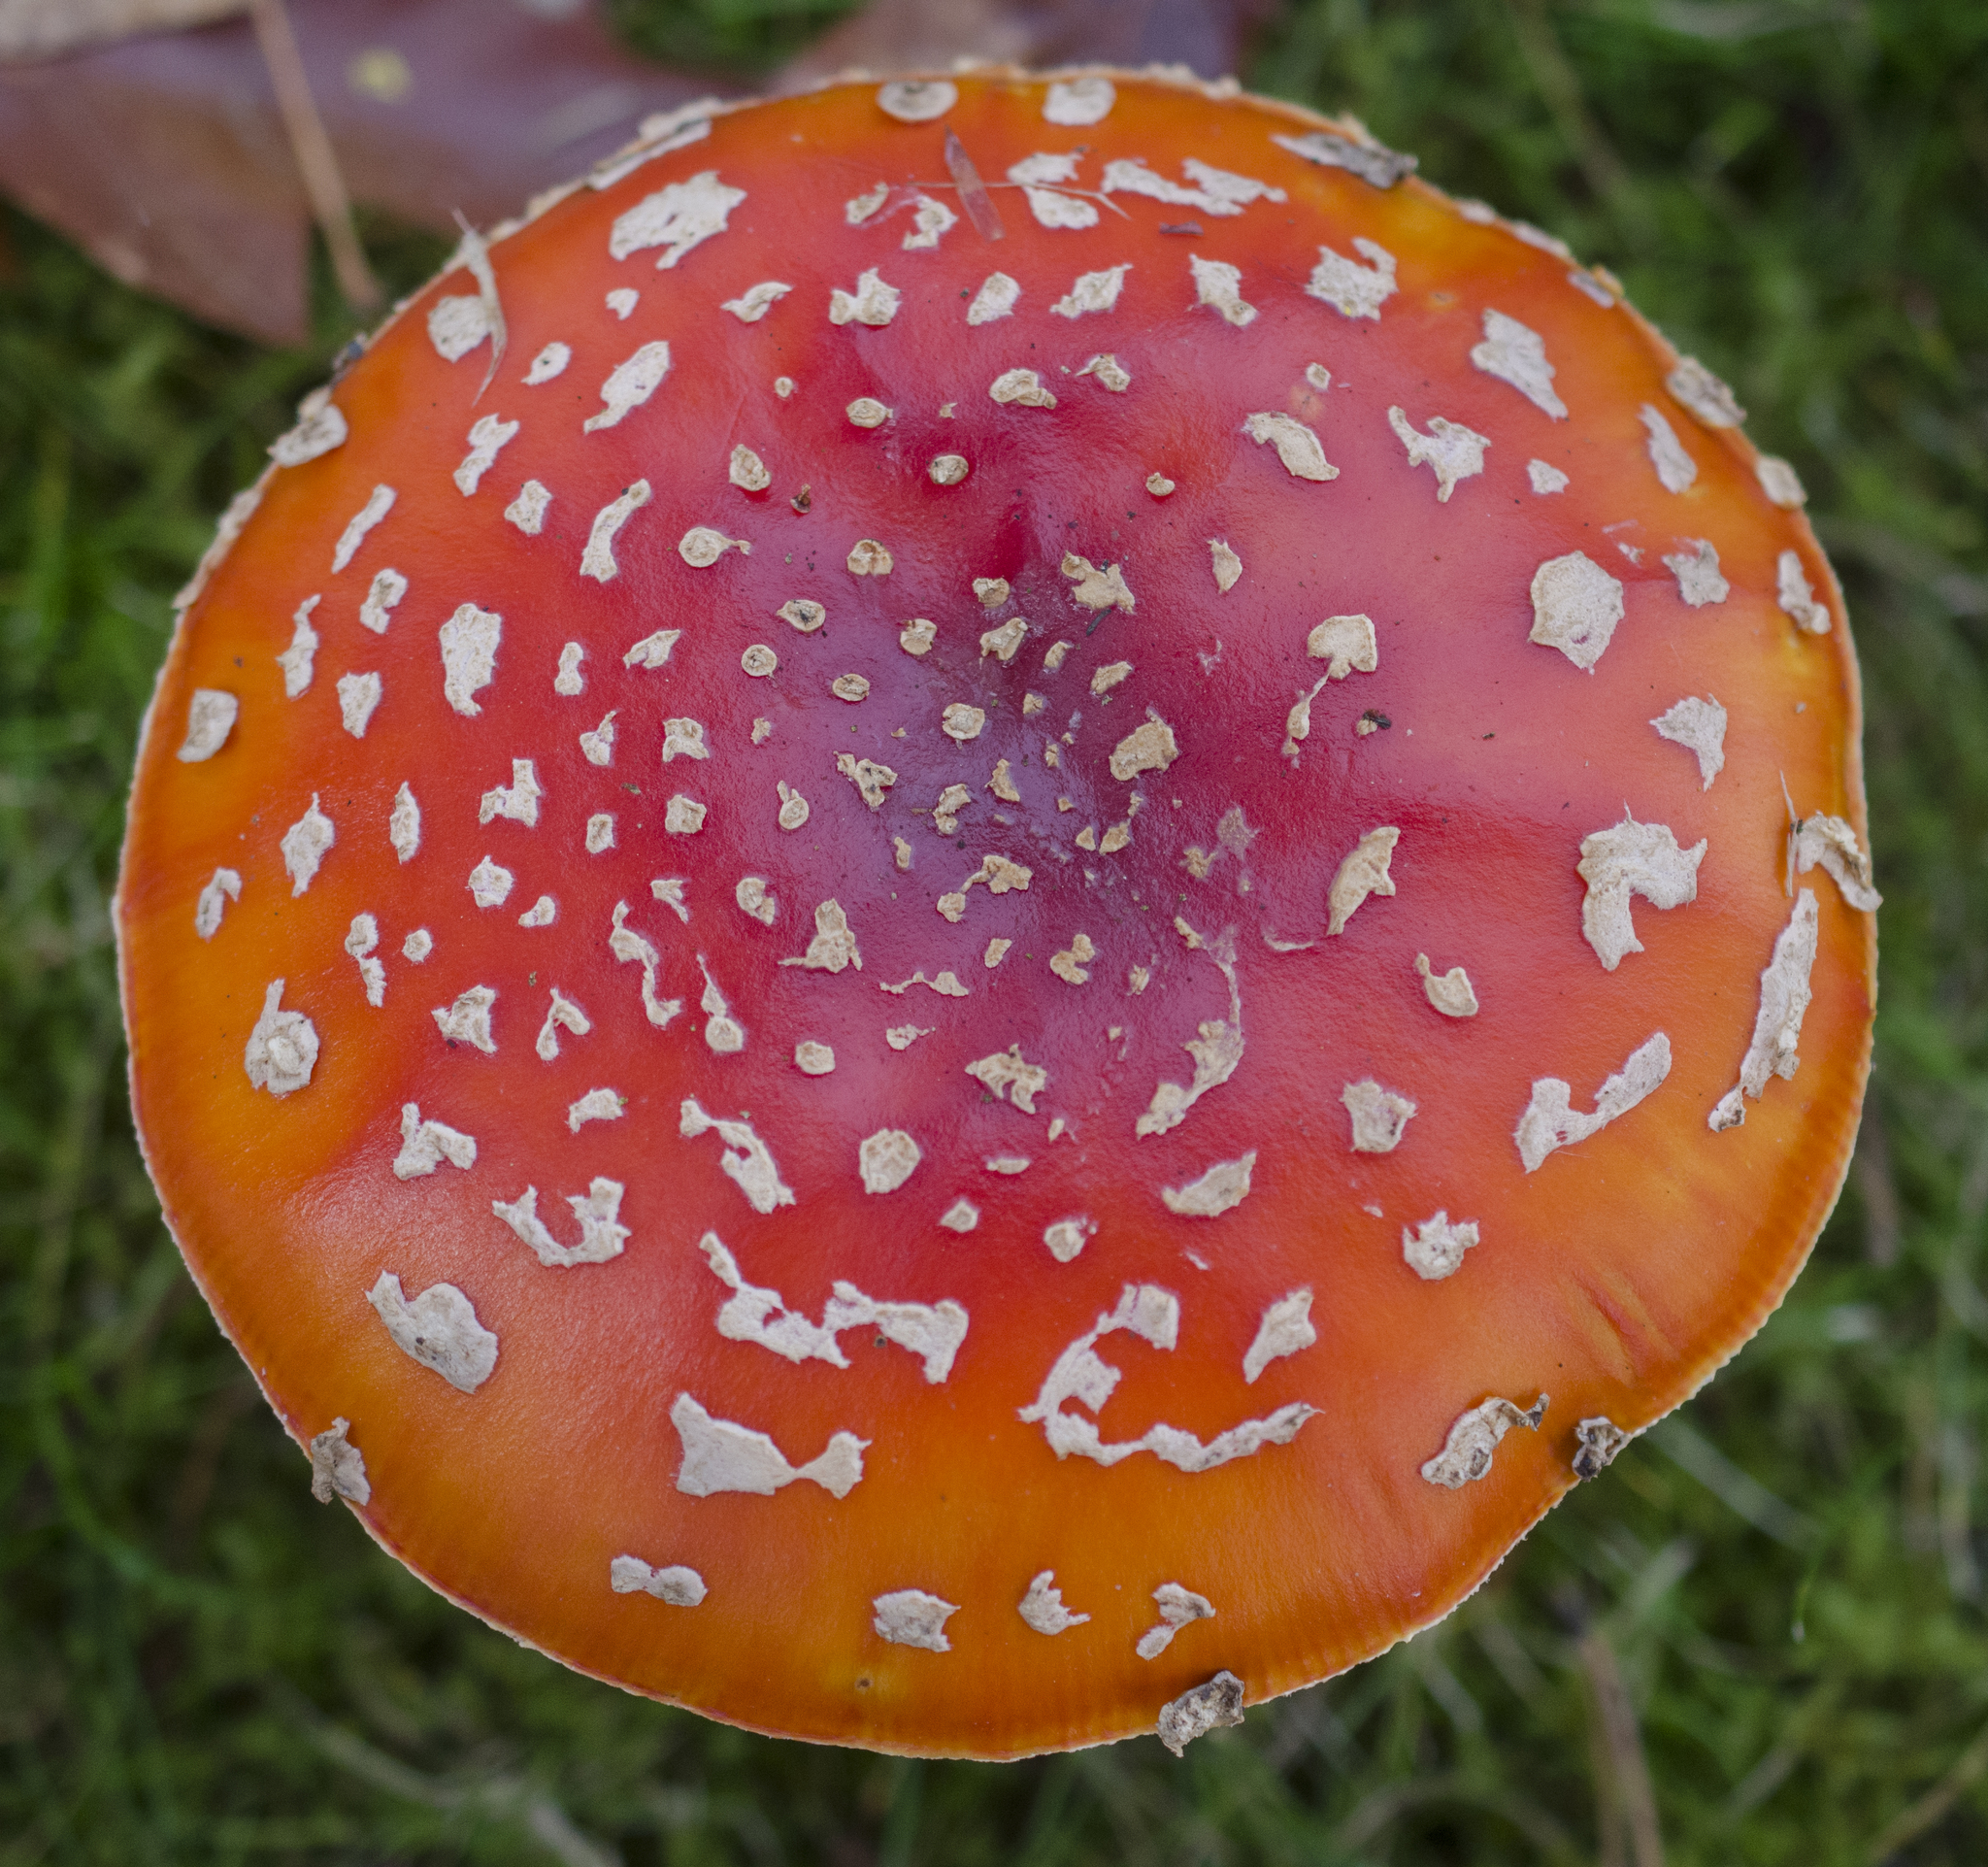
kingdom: Fungi
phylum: Basidiomycota
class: Agaricomycetes
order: Agaricales
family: Amanitaceae
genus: Amanita
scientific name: Amanita muscaria
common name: Fly agaric
